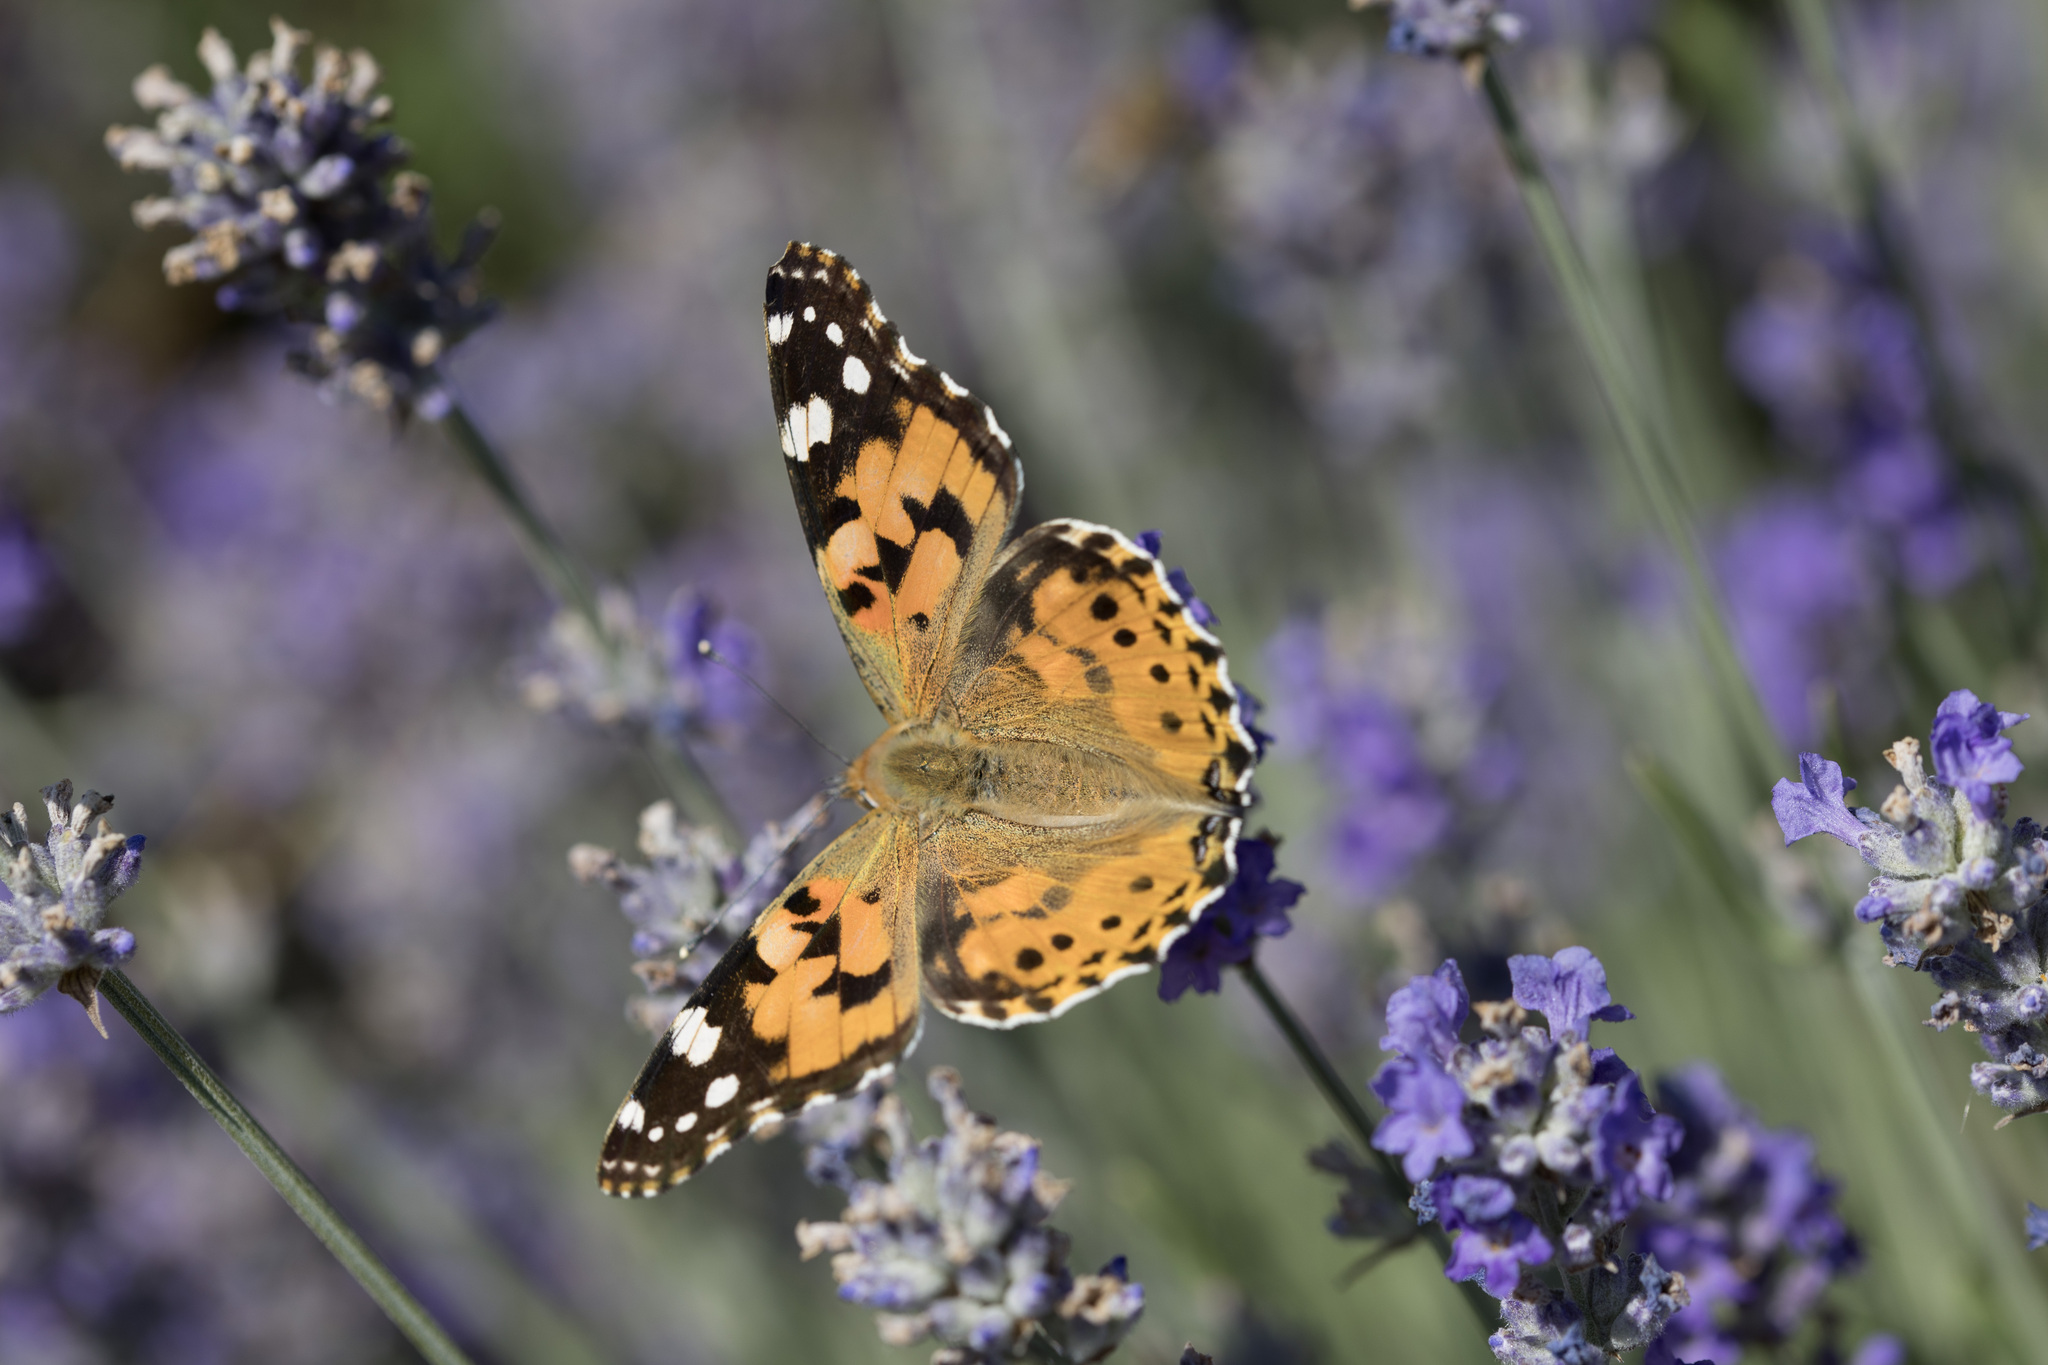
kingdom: Animalia
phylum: Arthropoda
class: Insecta
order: Lepidoptera
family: Nymphalidae
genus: Vanessa
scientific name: Vanessa cardui
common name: Painted lady
